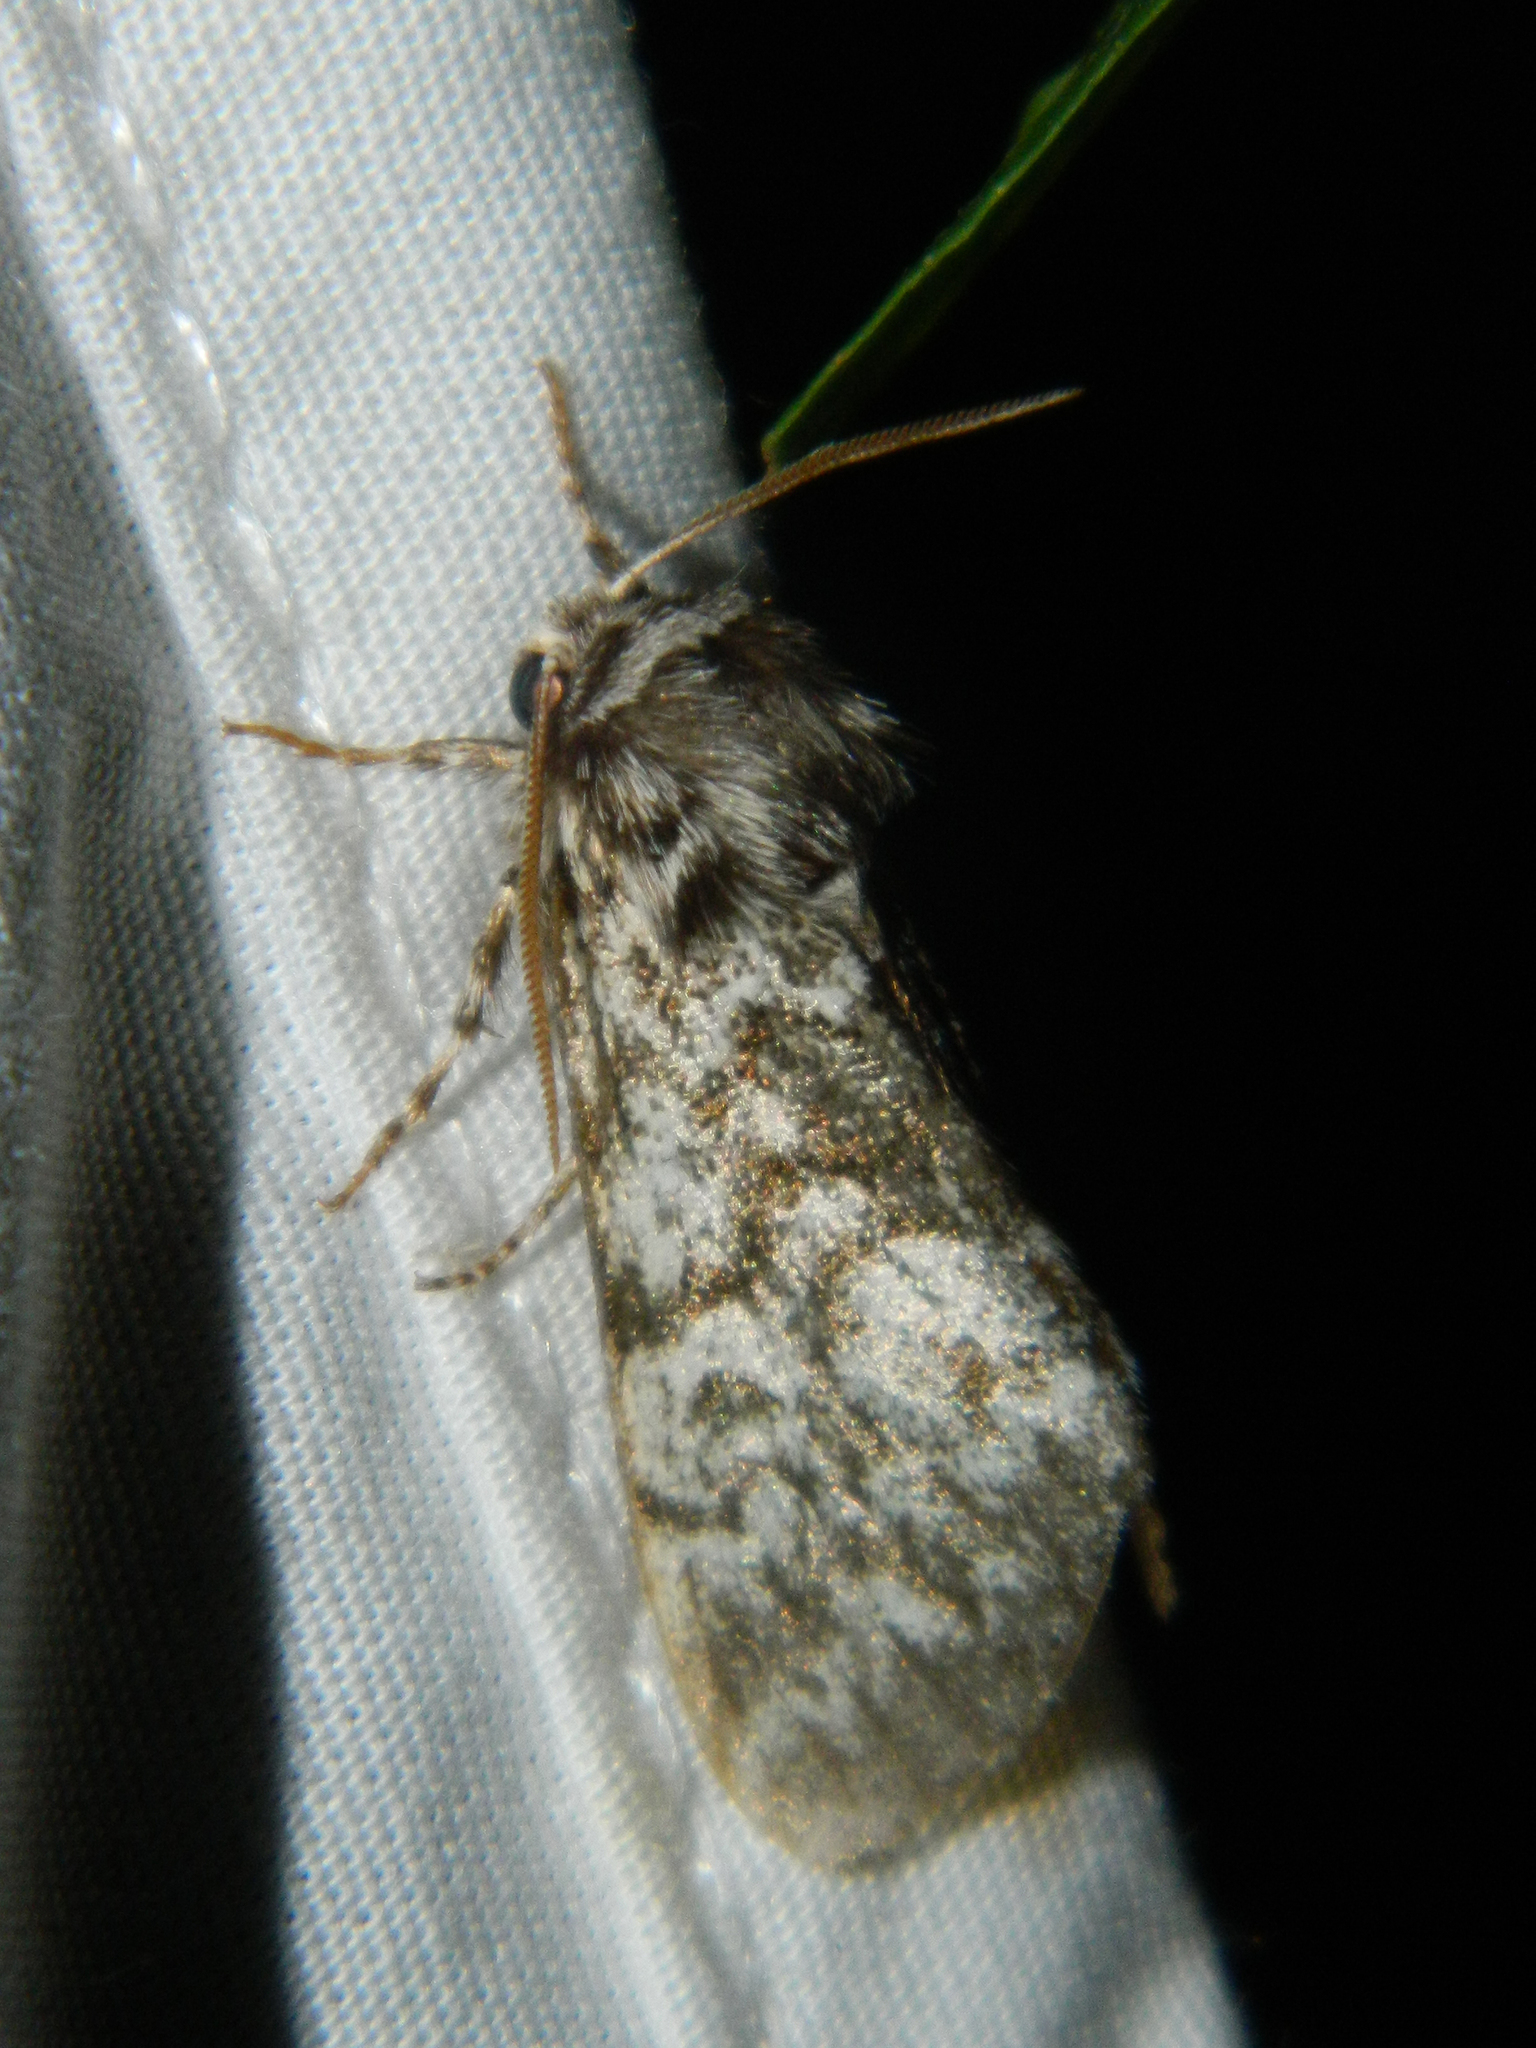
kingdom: Animalia
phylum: Arthropoda
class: Insecta
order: Lepidoptera
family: Noctuidae
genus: Panthea
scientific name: Panthea acronyctoides
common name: Black zigzag moth
